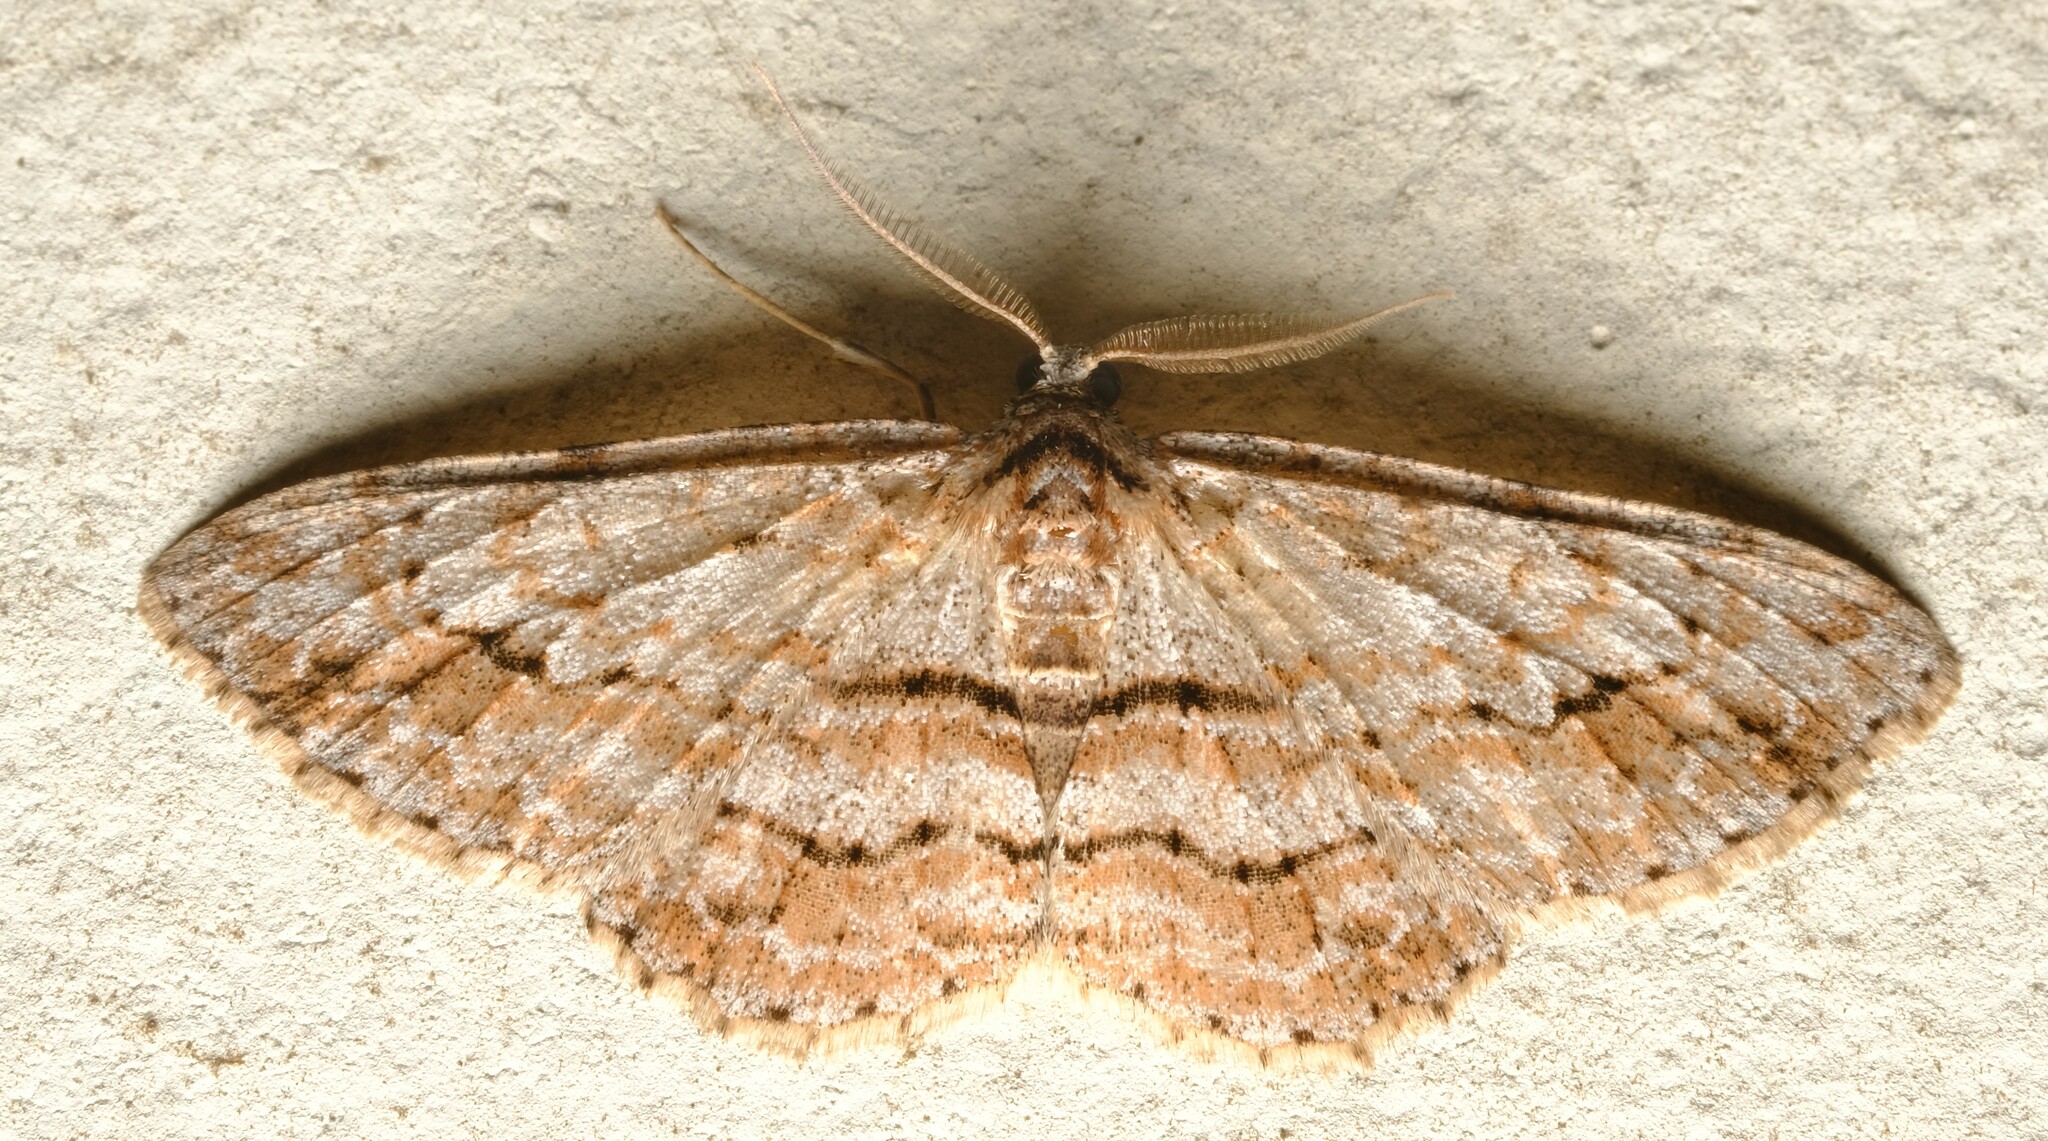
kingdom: Animalia
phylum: Arthropoda
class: Insecta
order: Lepidoptera
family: Geometridae
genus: Didymoctenia
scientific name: Didymoctenia exsuperata
